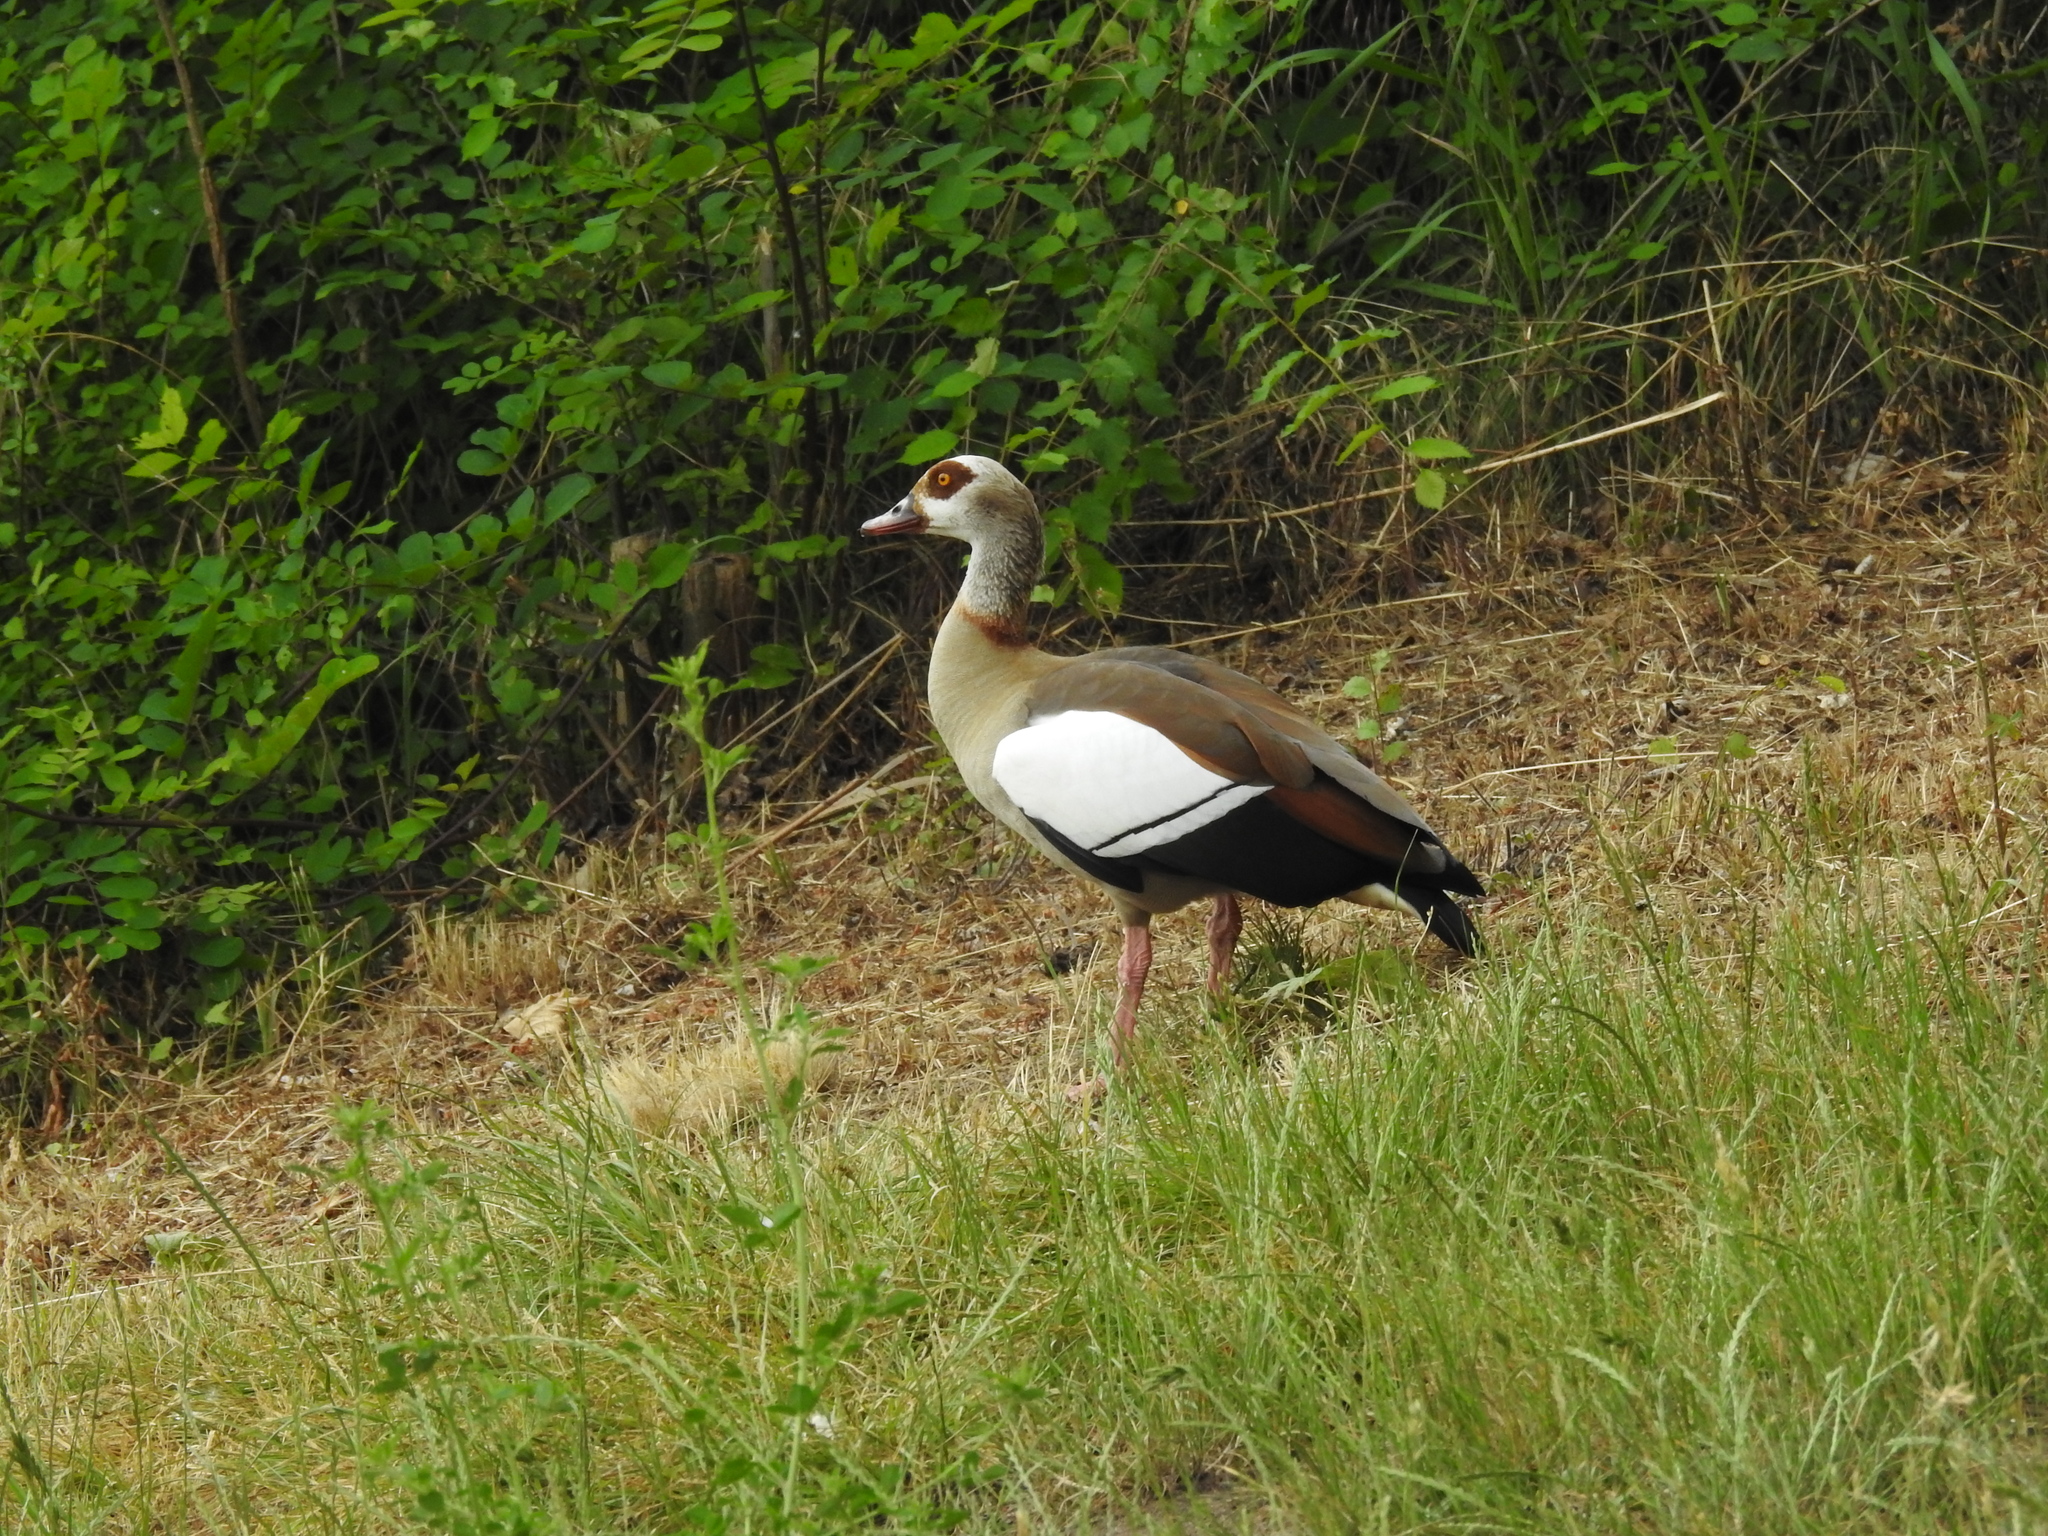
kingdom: Animalia
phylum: Chordata
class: Aves
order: Anseriformes
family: Anatidae
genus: Alopochen
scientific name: Alopochen aegyptiaca
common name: Egyptian goose
